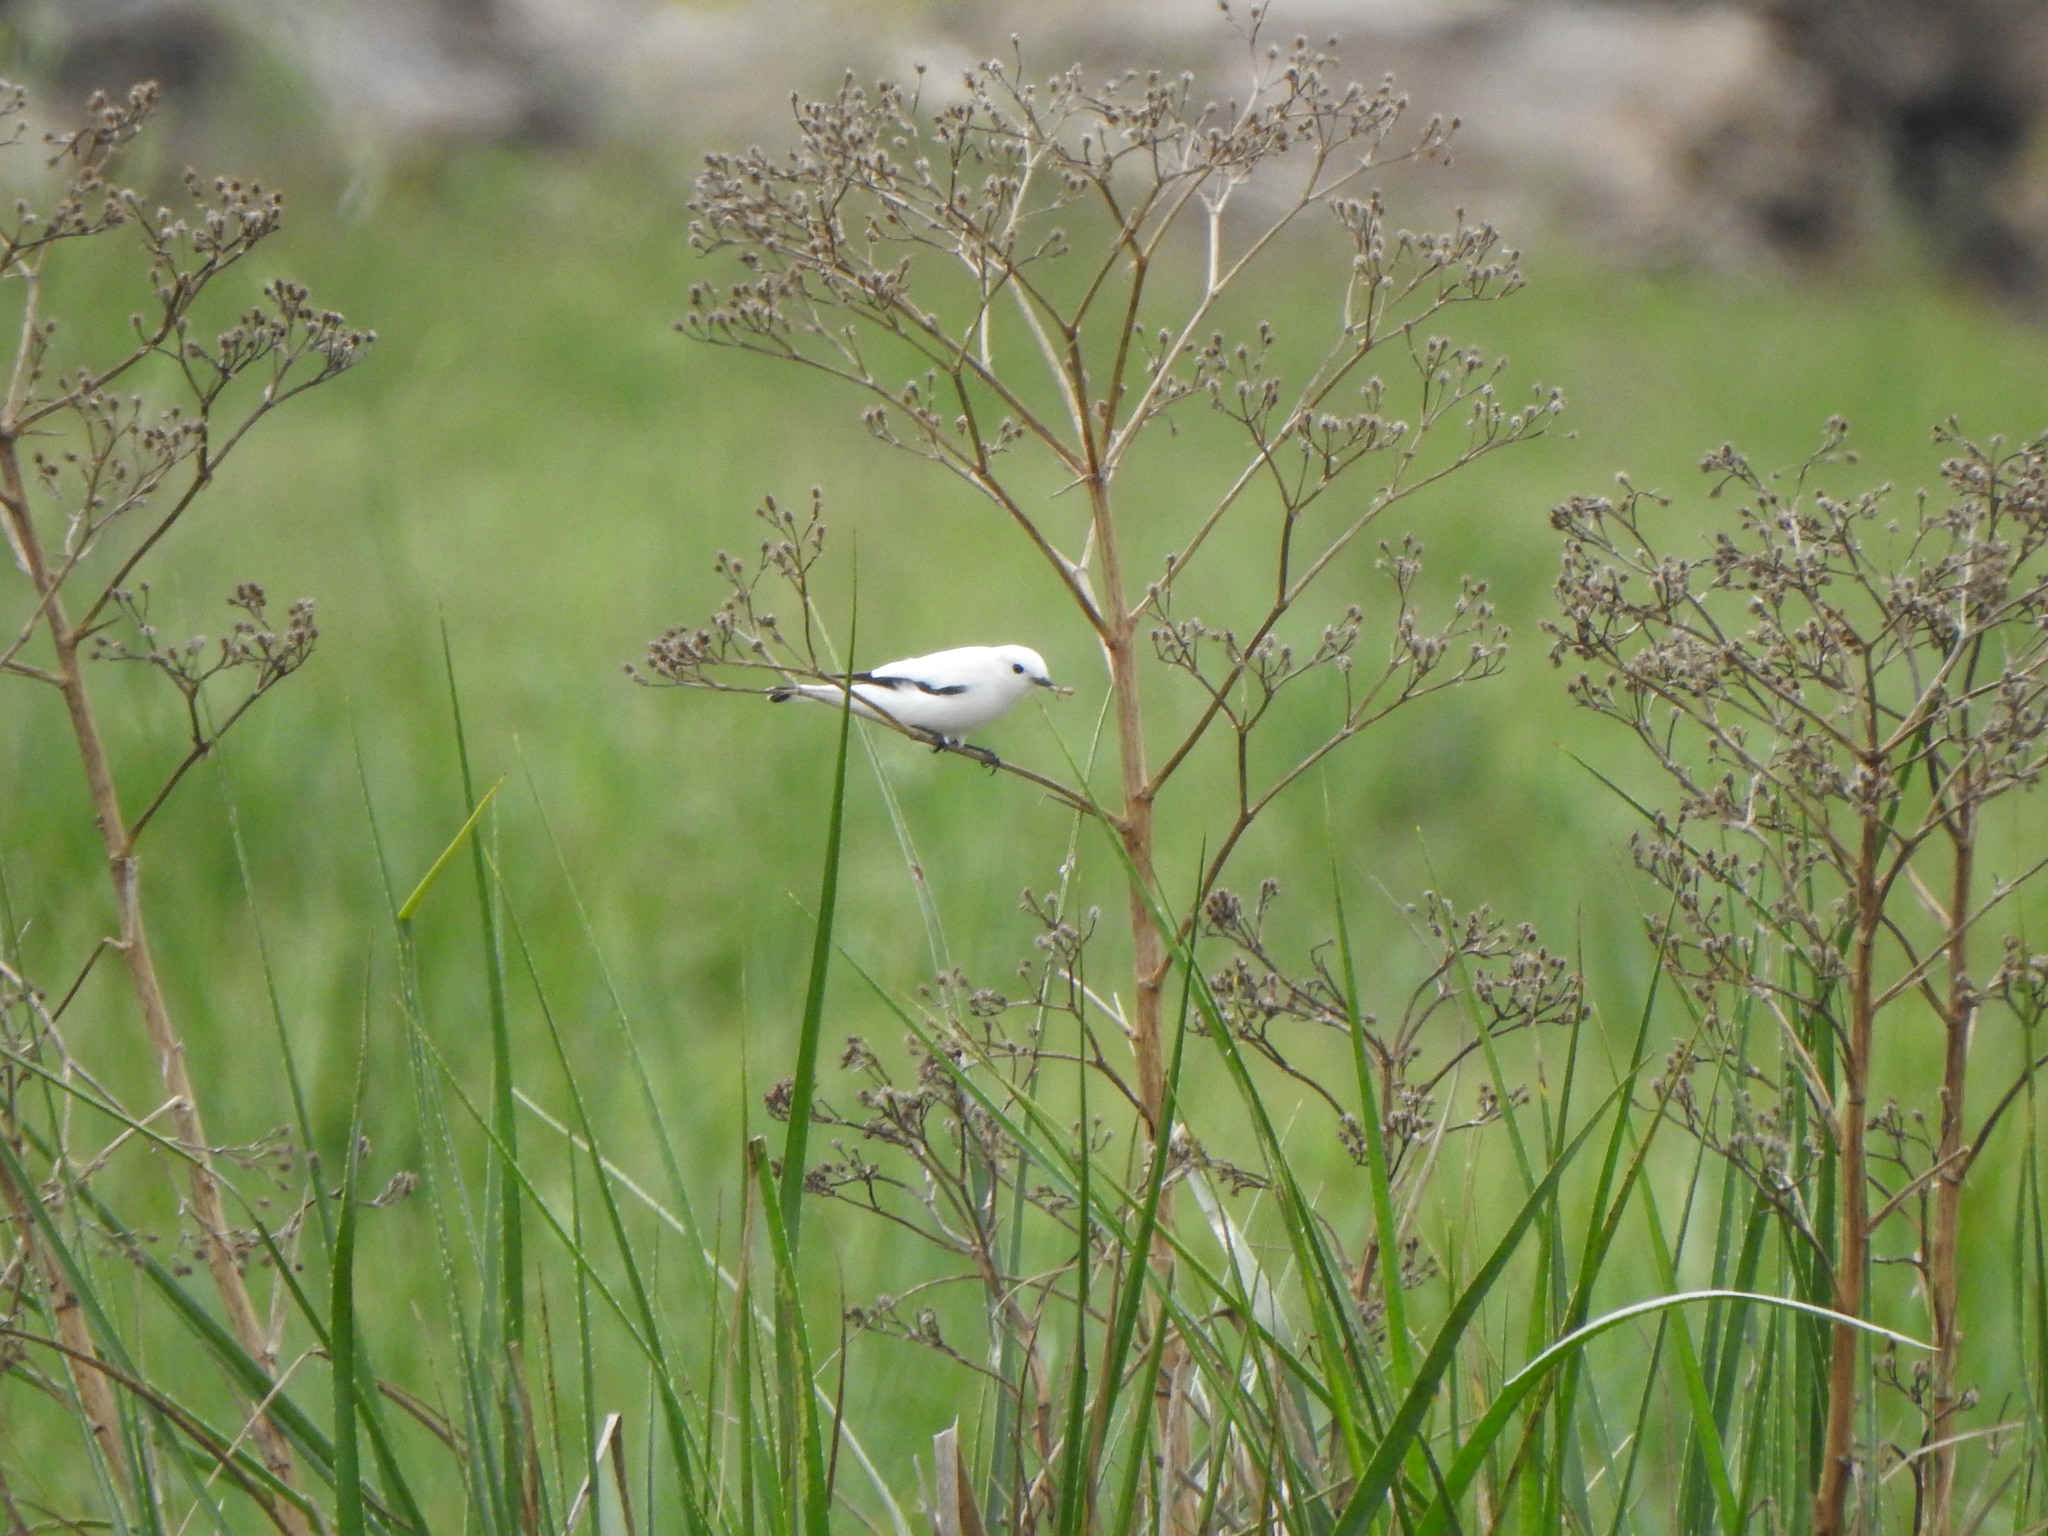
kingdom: Animalia
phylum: Chordata
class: Aves
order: Passeriformes
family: Tyrannidae
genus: Xolmis
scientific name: Xolmis irupero
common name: White monjita
